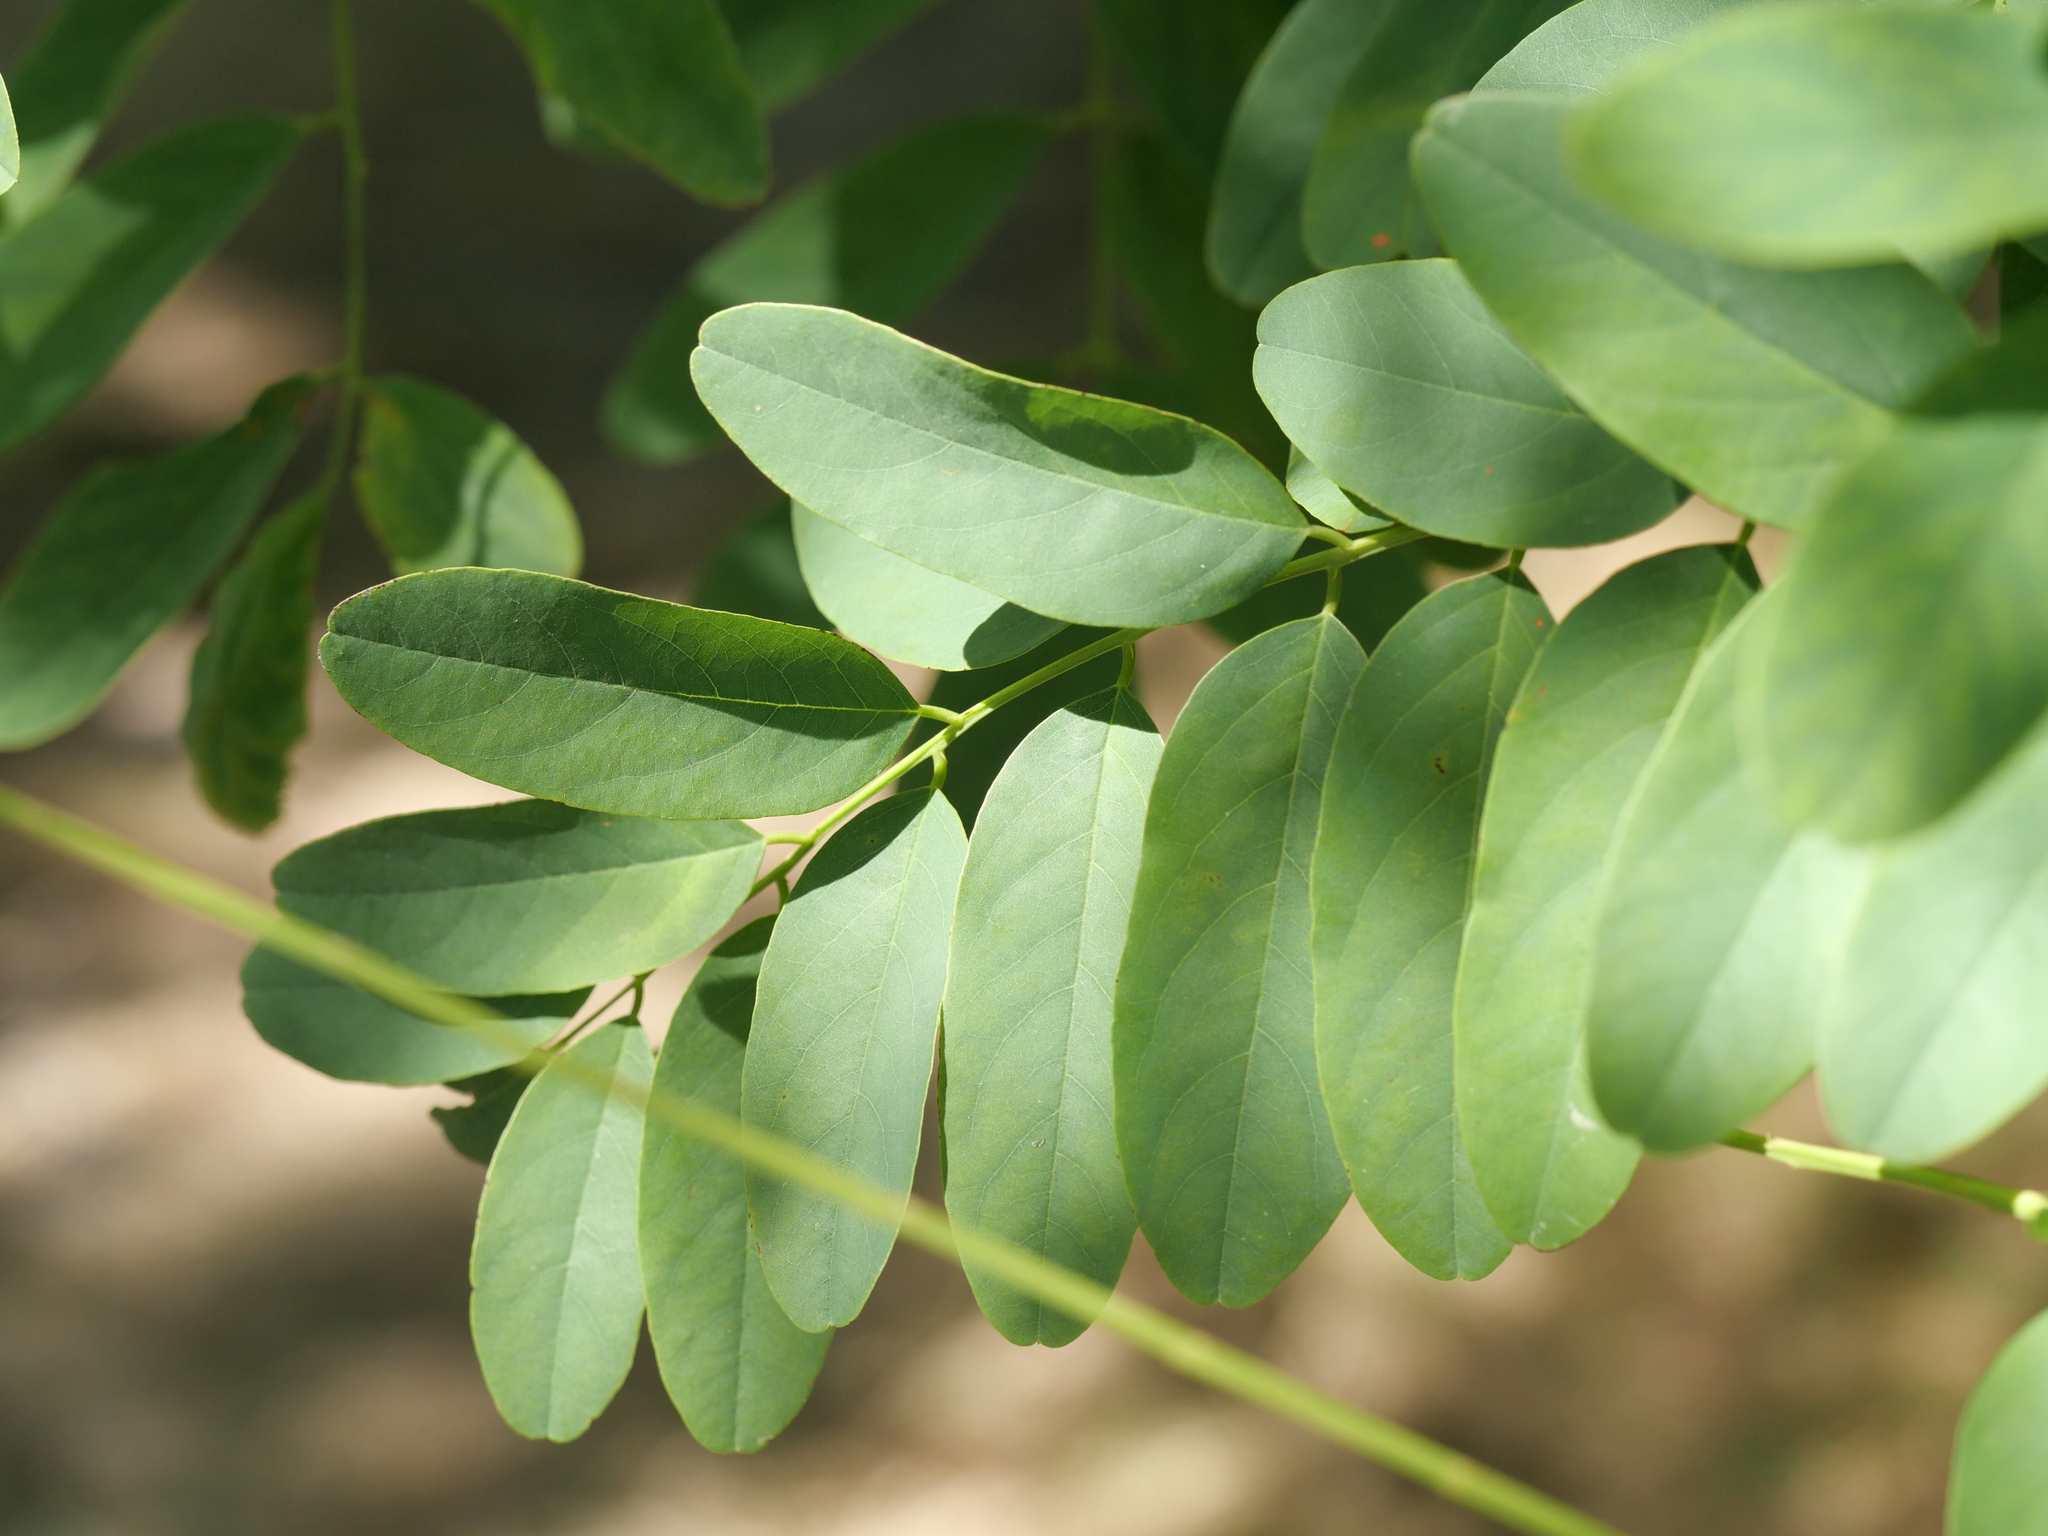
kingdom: Plantae
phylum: Tracheophyta
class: Magnoliopsida
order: Fabales
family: Fabaceae
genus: Robinia
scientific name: Robinia pseudoacacia
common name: Black locust
